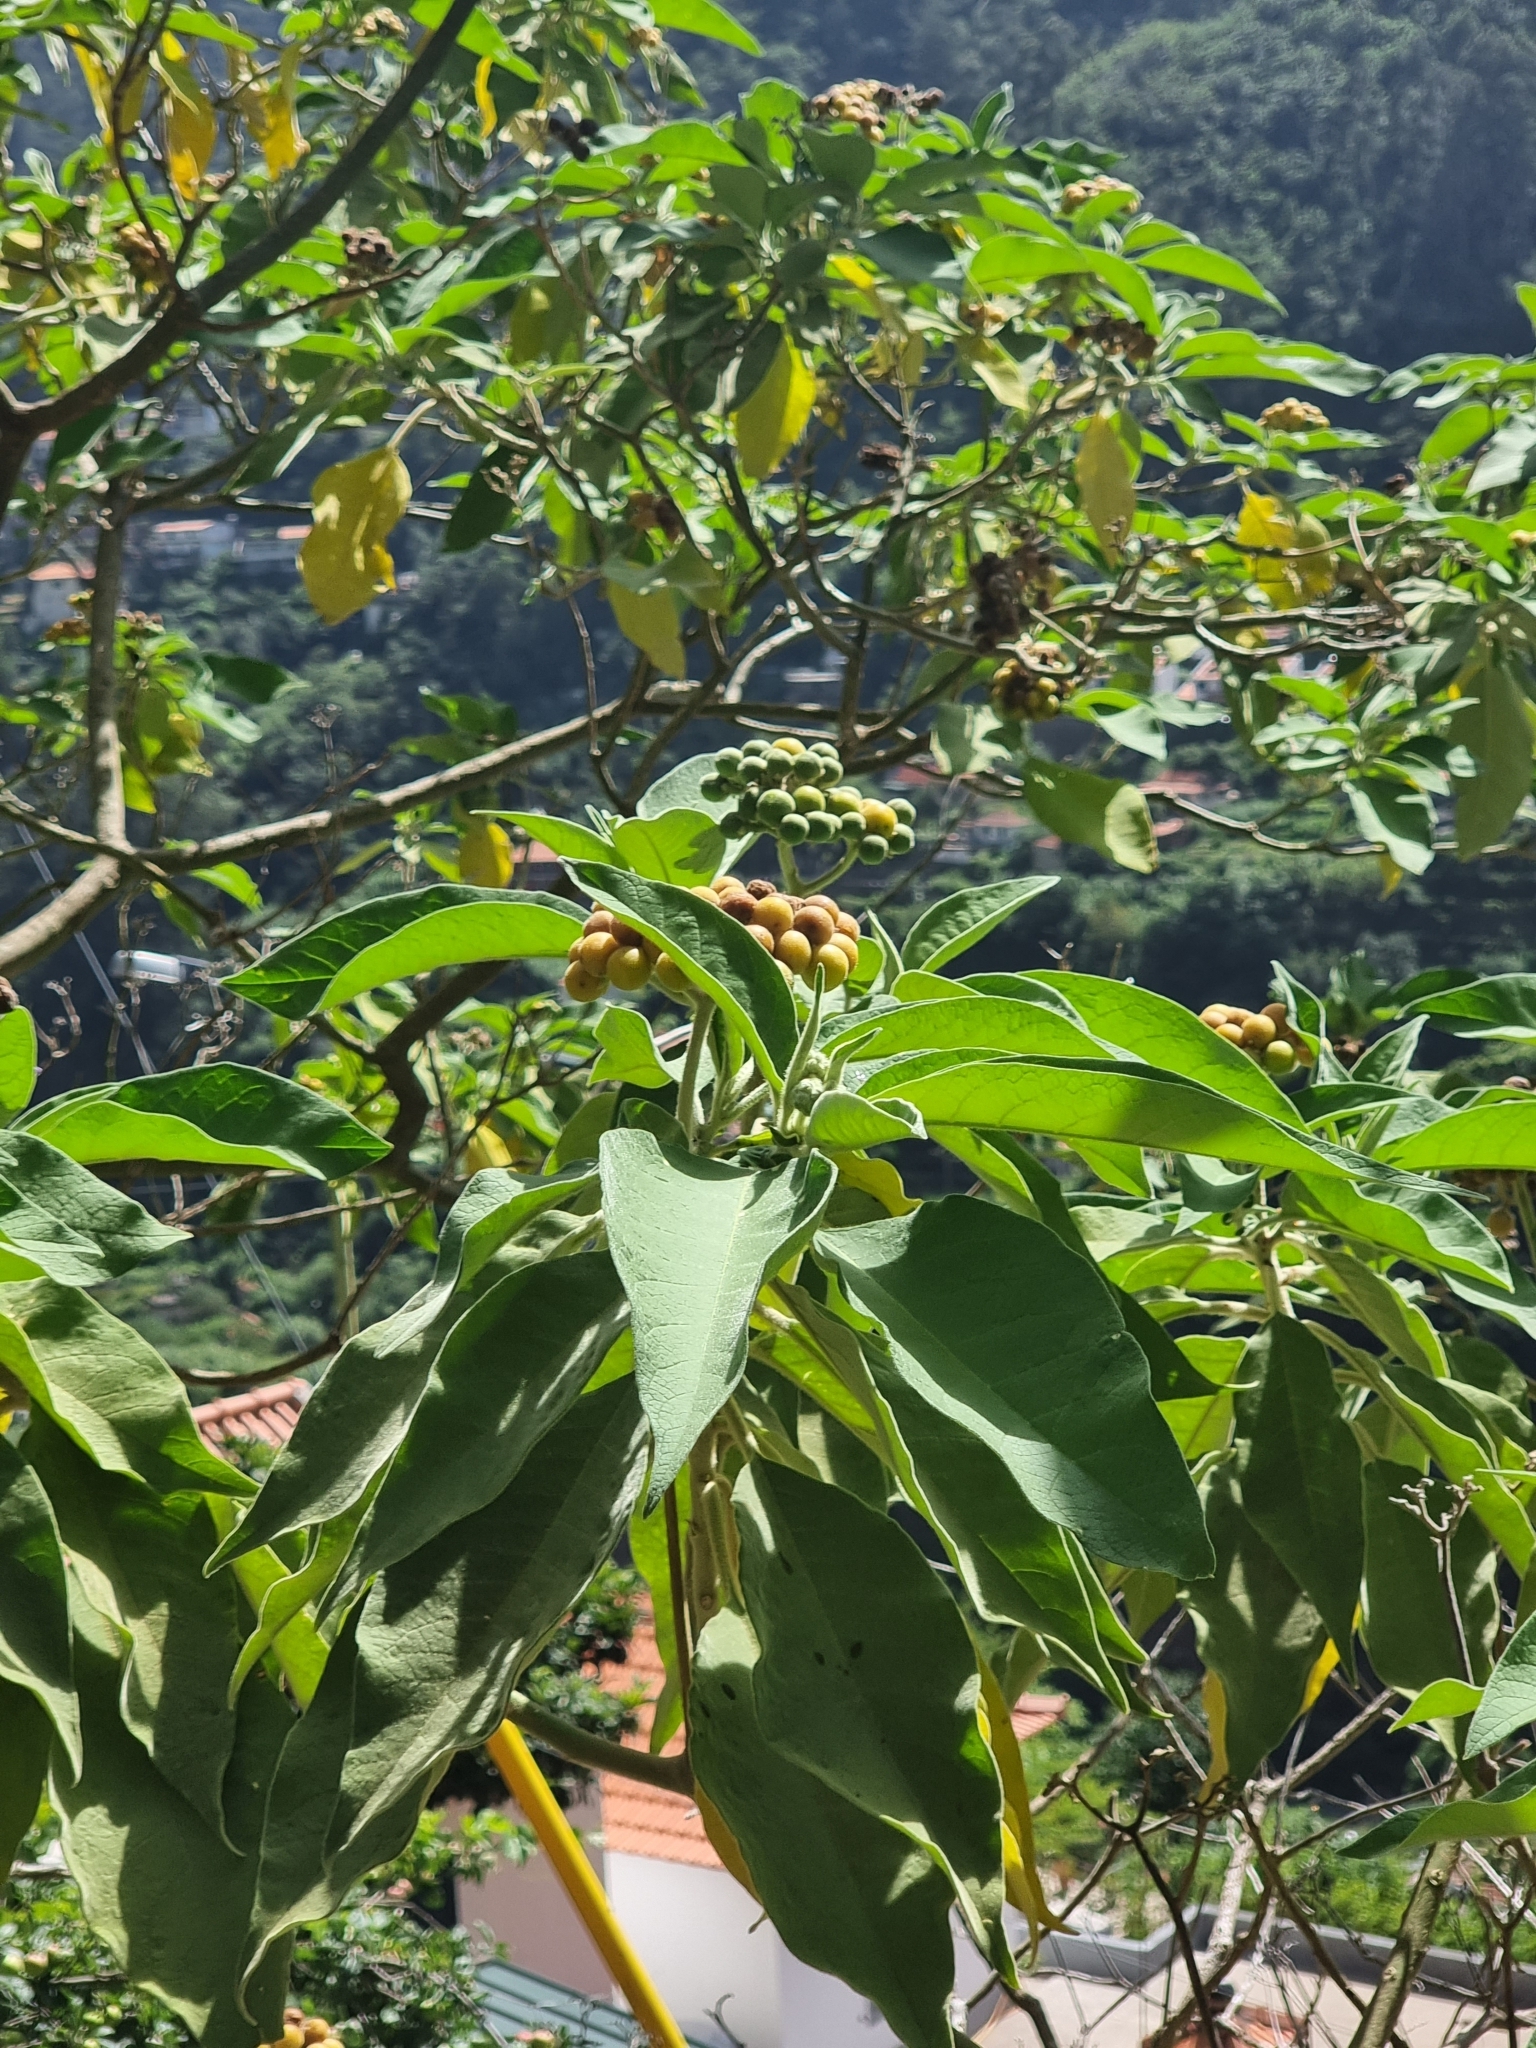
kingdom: Plantae
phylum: Tracheophyta
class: Magnoliopsida
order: Solanales
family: Solanaceae
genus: Solanum
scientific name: Solanum mauritianum
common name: Earleaf nightshade
